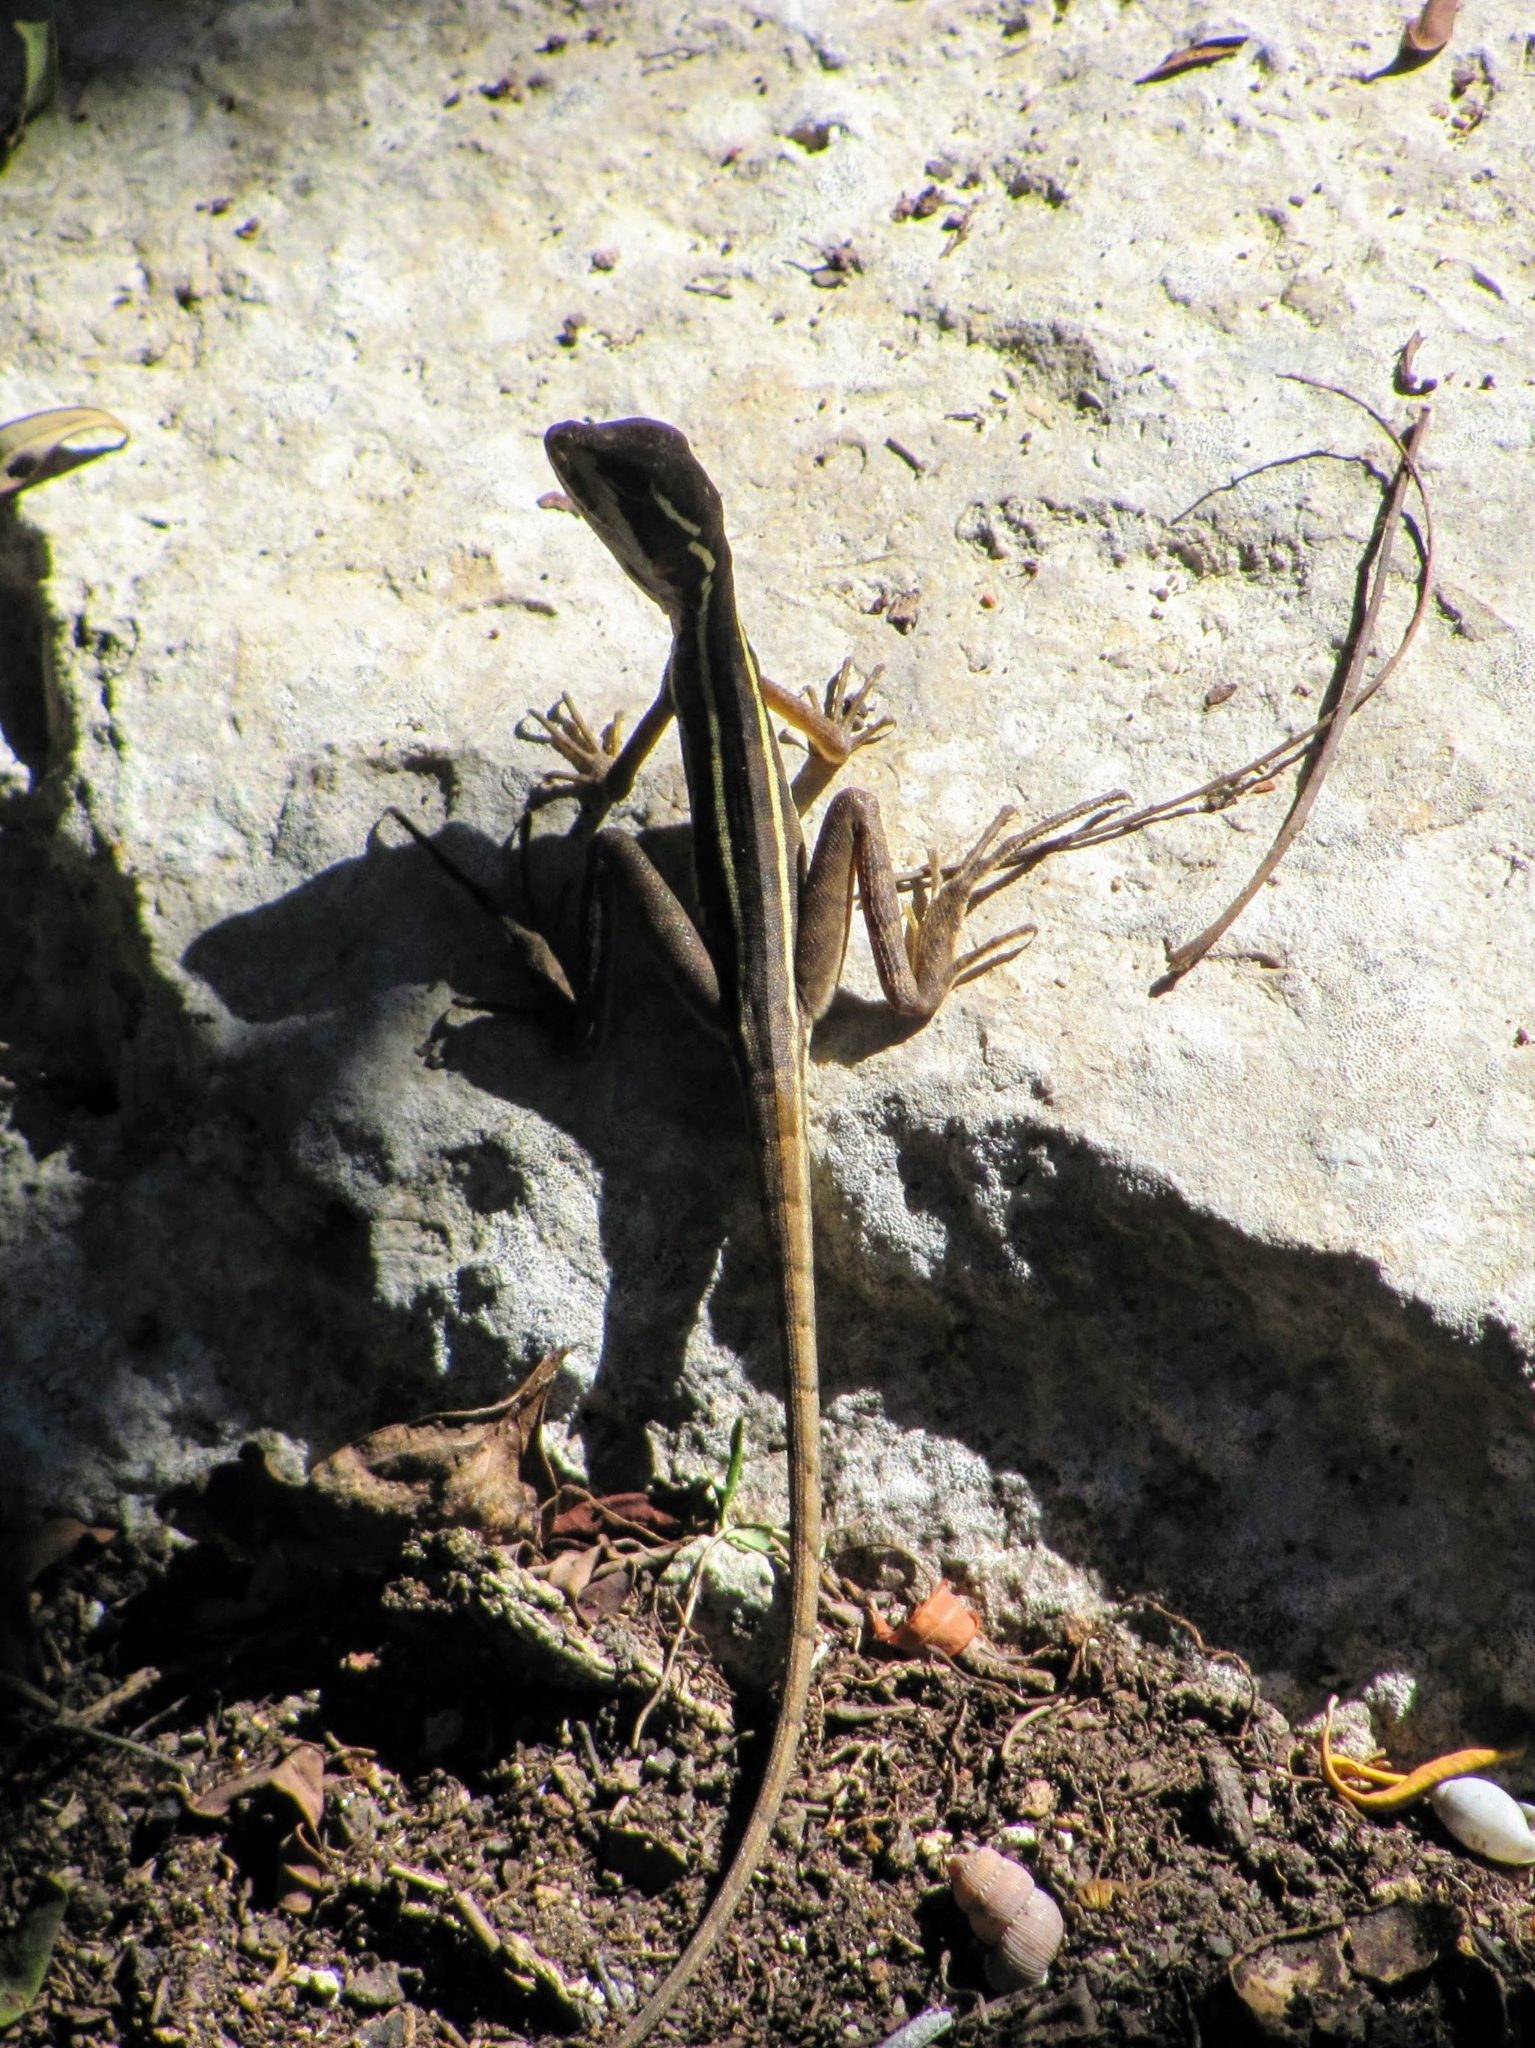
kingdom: Animalia
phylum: Chordata
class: Squamata
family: Corytophanidae
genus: Basiliscus
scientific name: Basiliscus vittatus
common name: Brown basilisk
